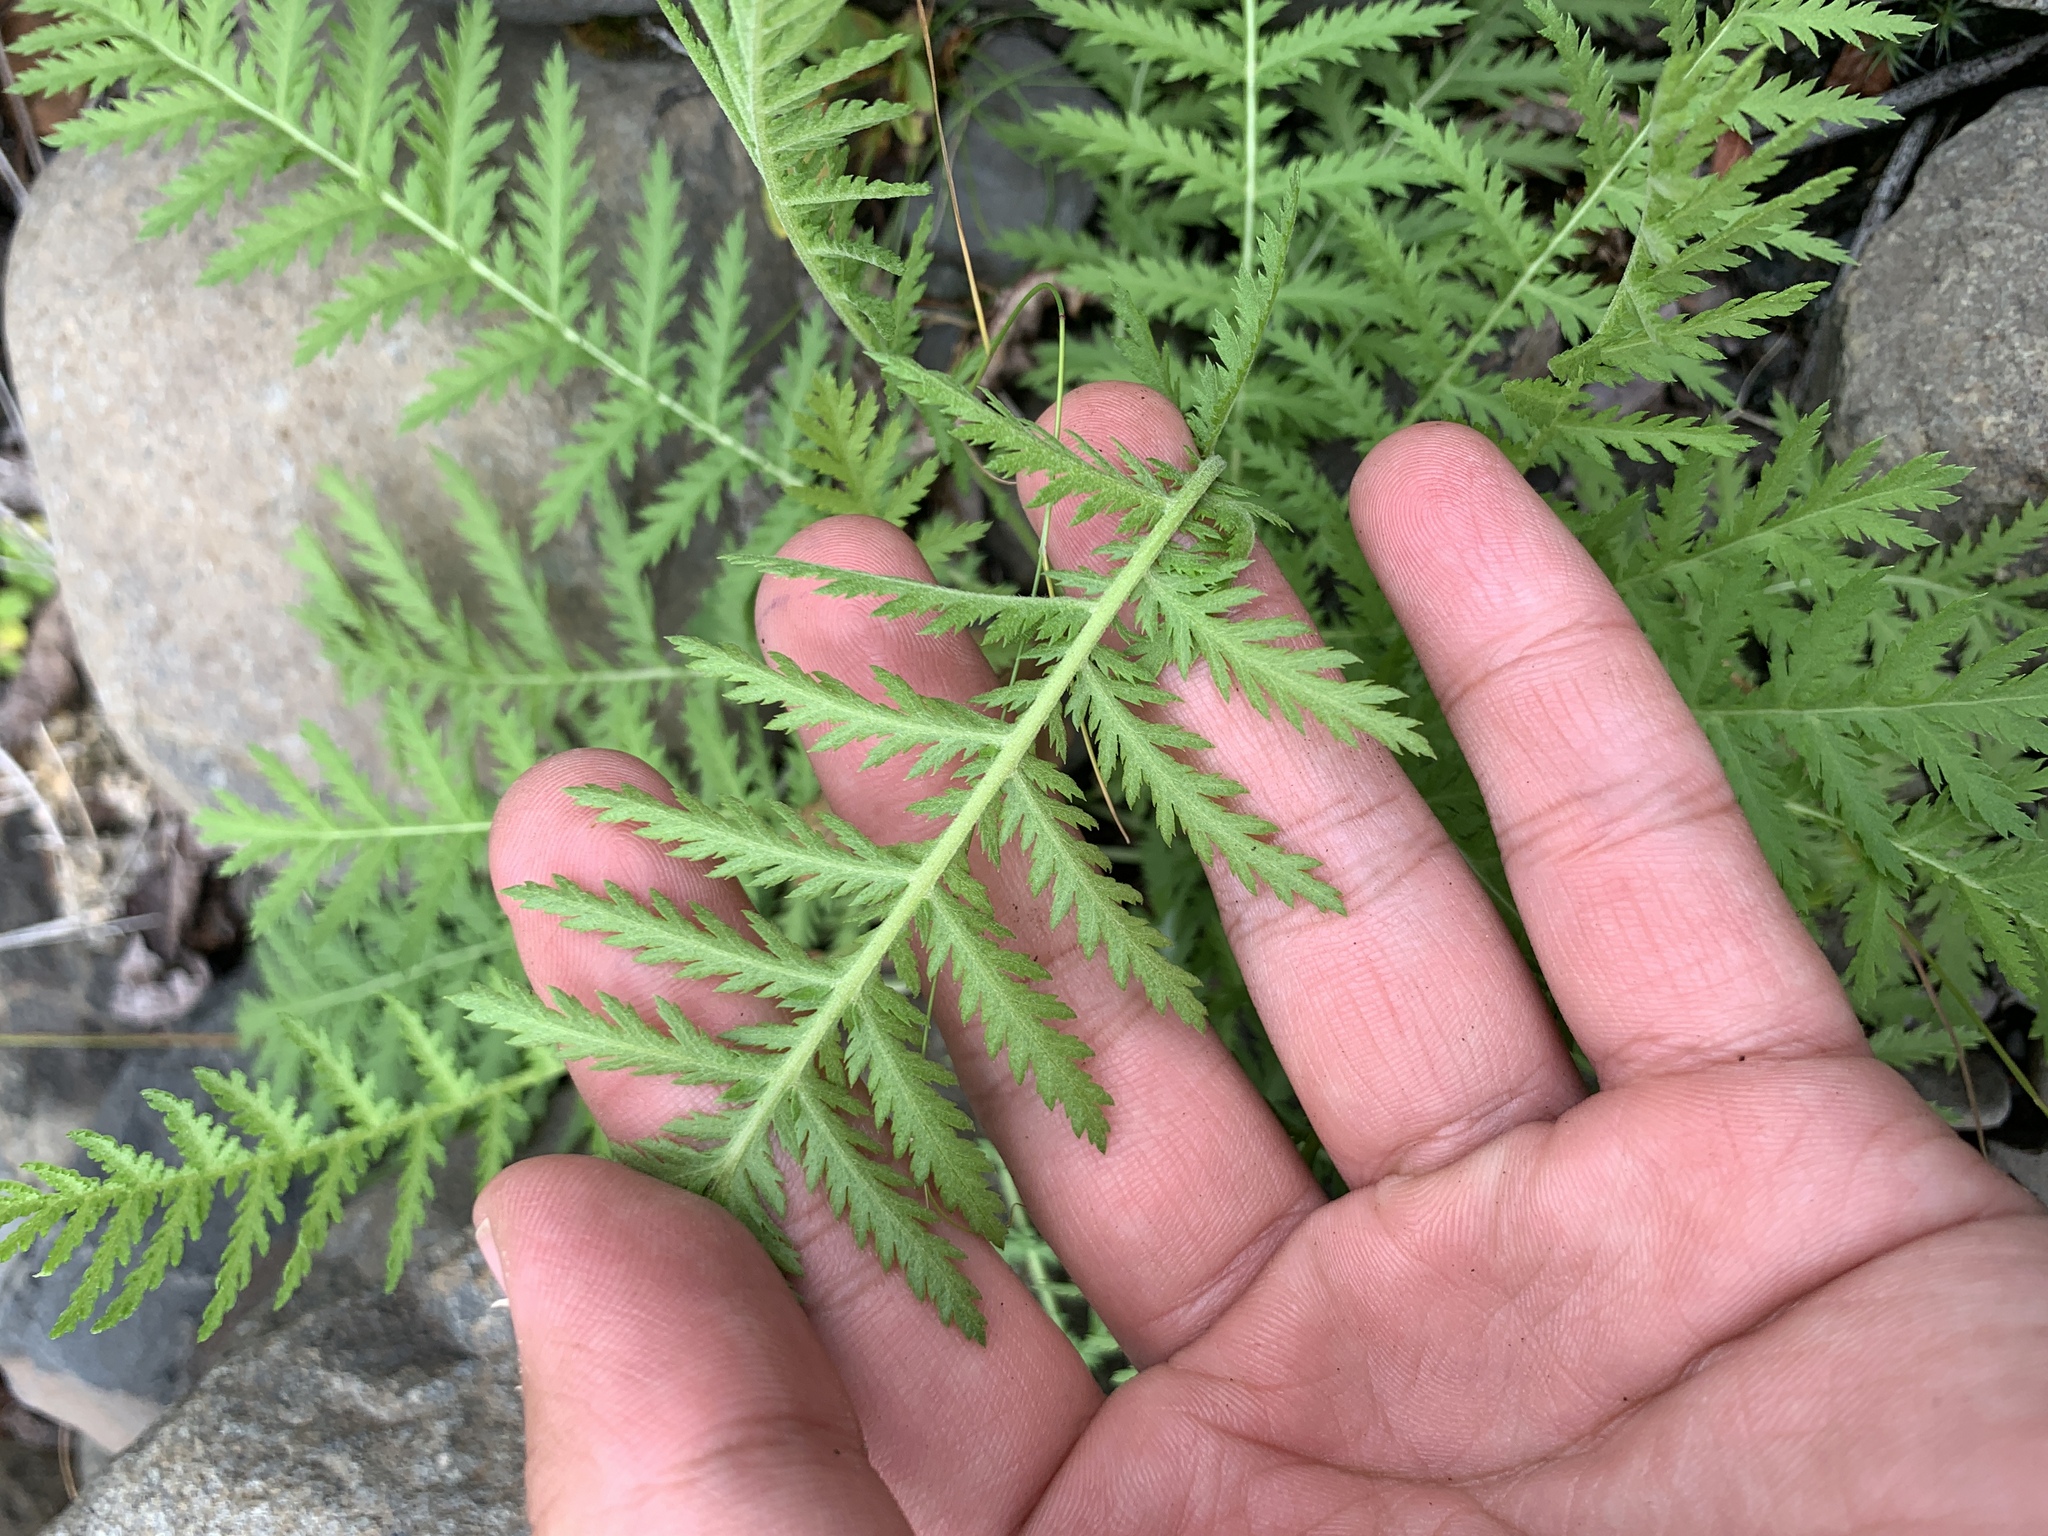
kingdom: Plantae
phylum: Tracheophyta
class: Magnoliopsida
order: Asterales
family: Asteraceae
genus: Tanacetum
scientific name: Tanacetum vulgare
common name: Common tansy
